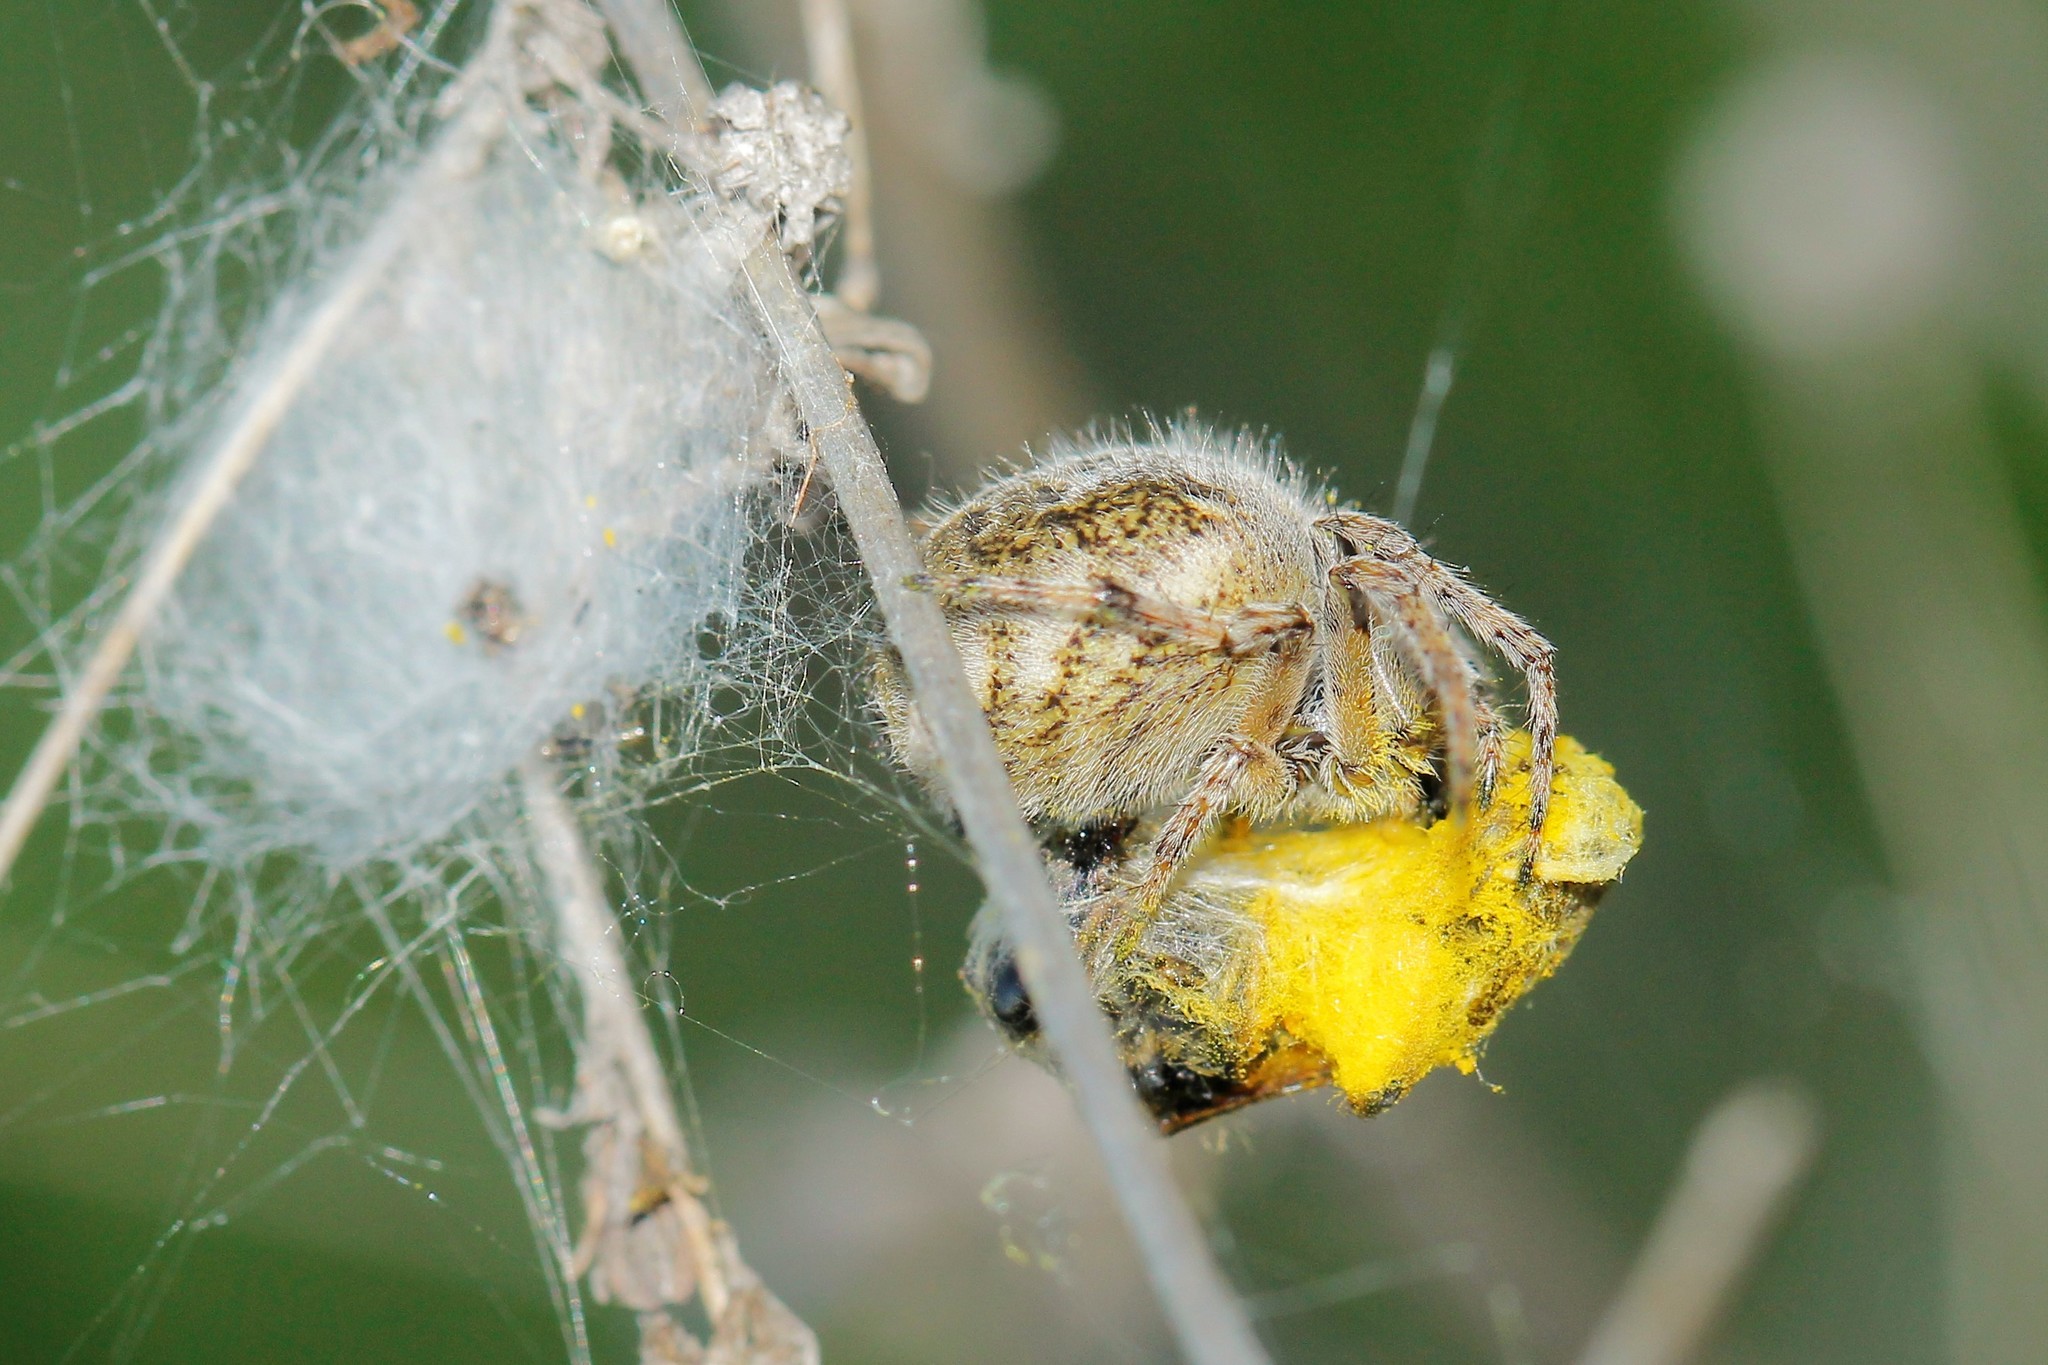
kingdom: Animalia
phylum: Arthropoda
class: Arachnida
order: Araneae
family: Araneidae
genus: Agalenatea
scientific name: Agalenatea redii
